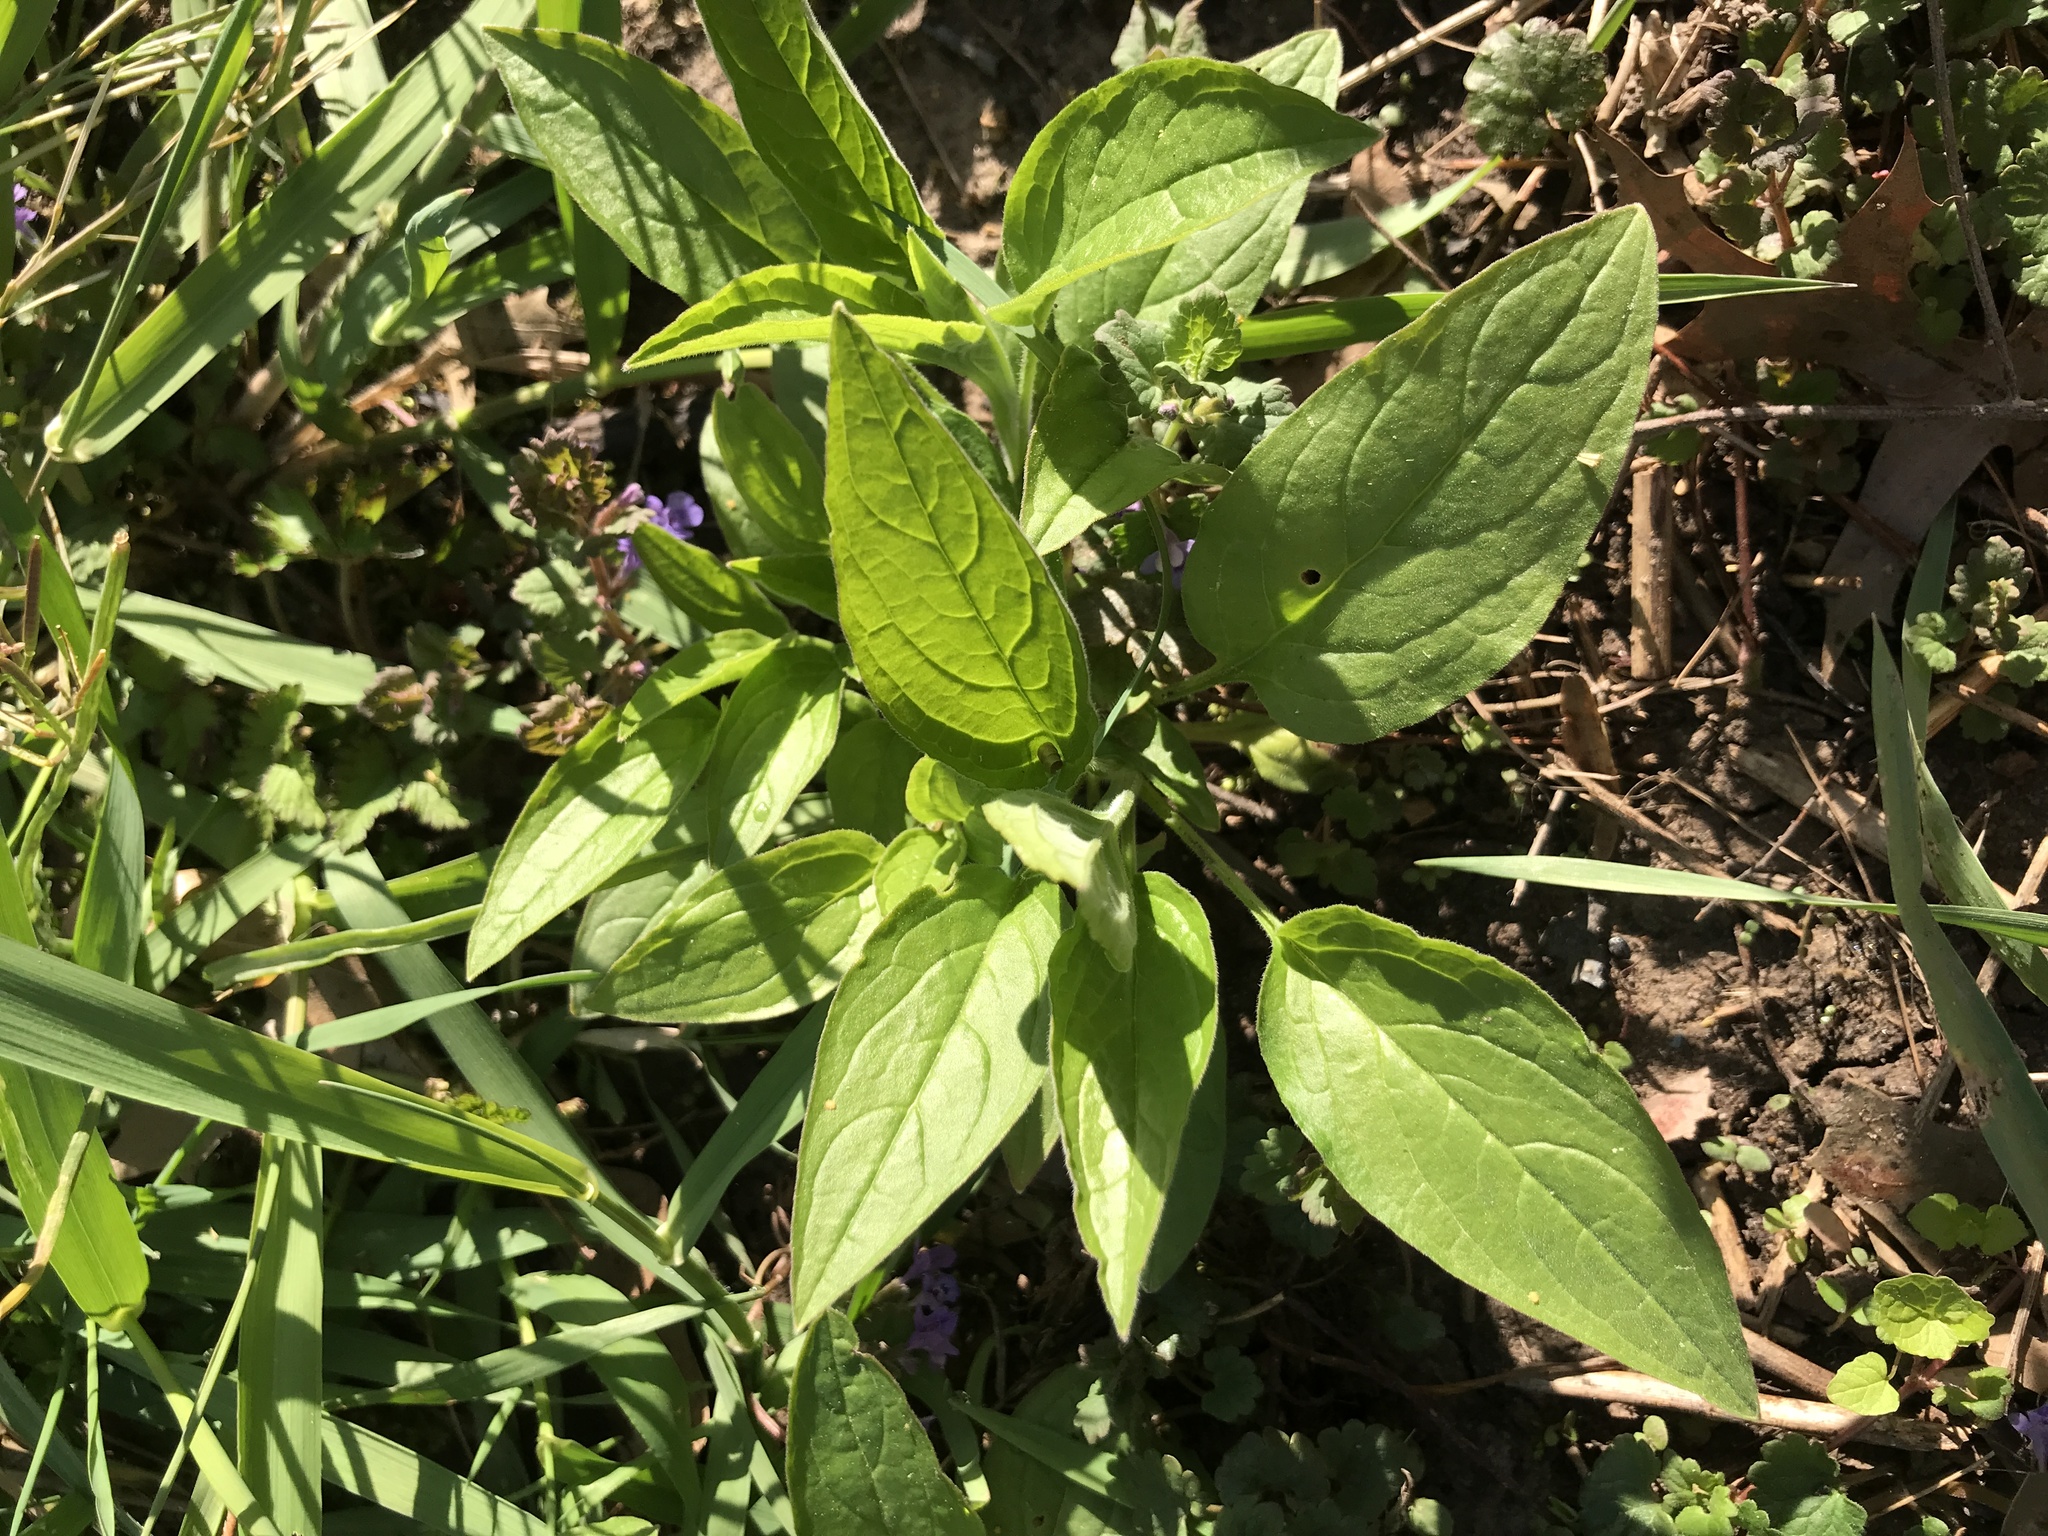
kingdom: Plantae
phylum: Tracheophyta
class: Magnoliopsida
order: Boraginales
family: Boraginaceae
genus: Hackelia
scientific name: Hackelia virginiana
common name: Beggar's-lice
